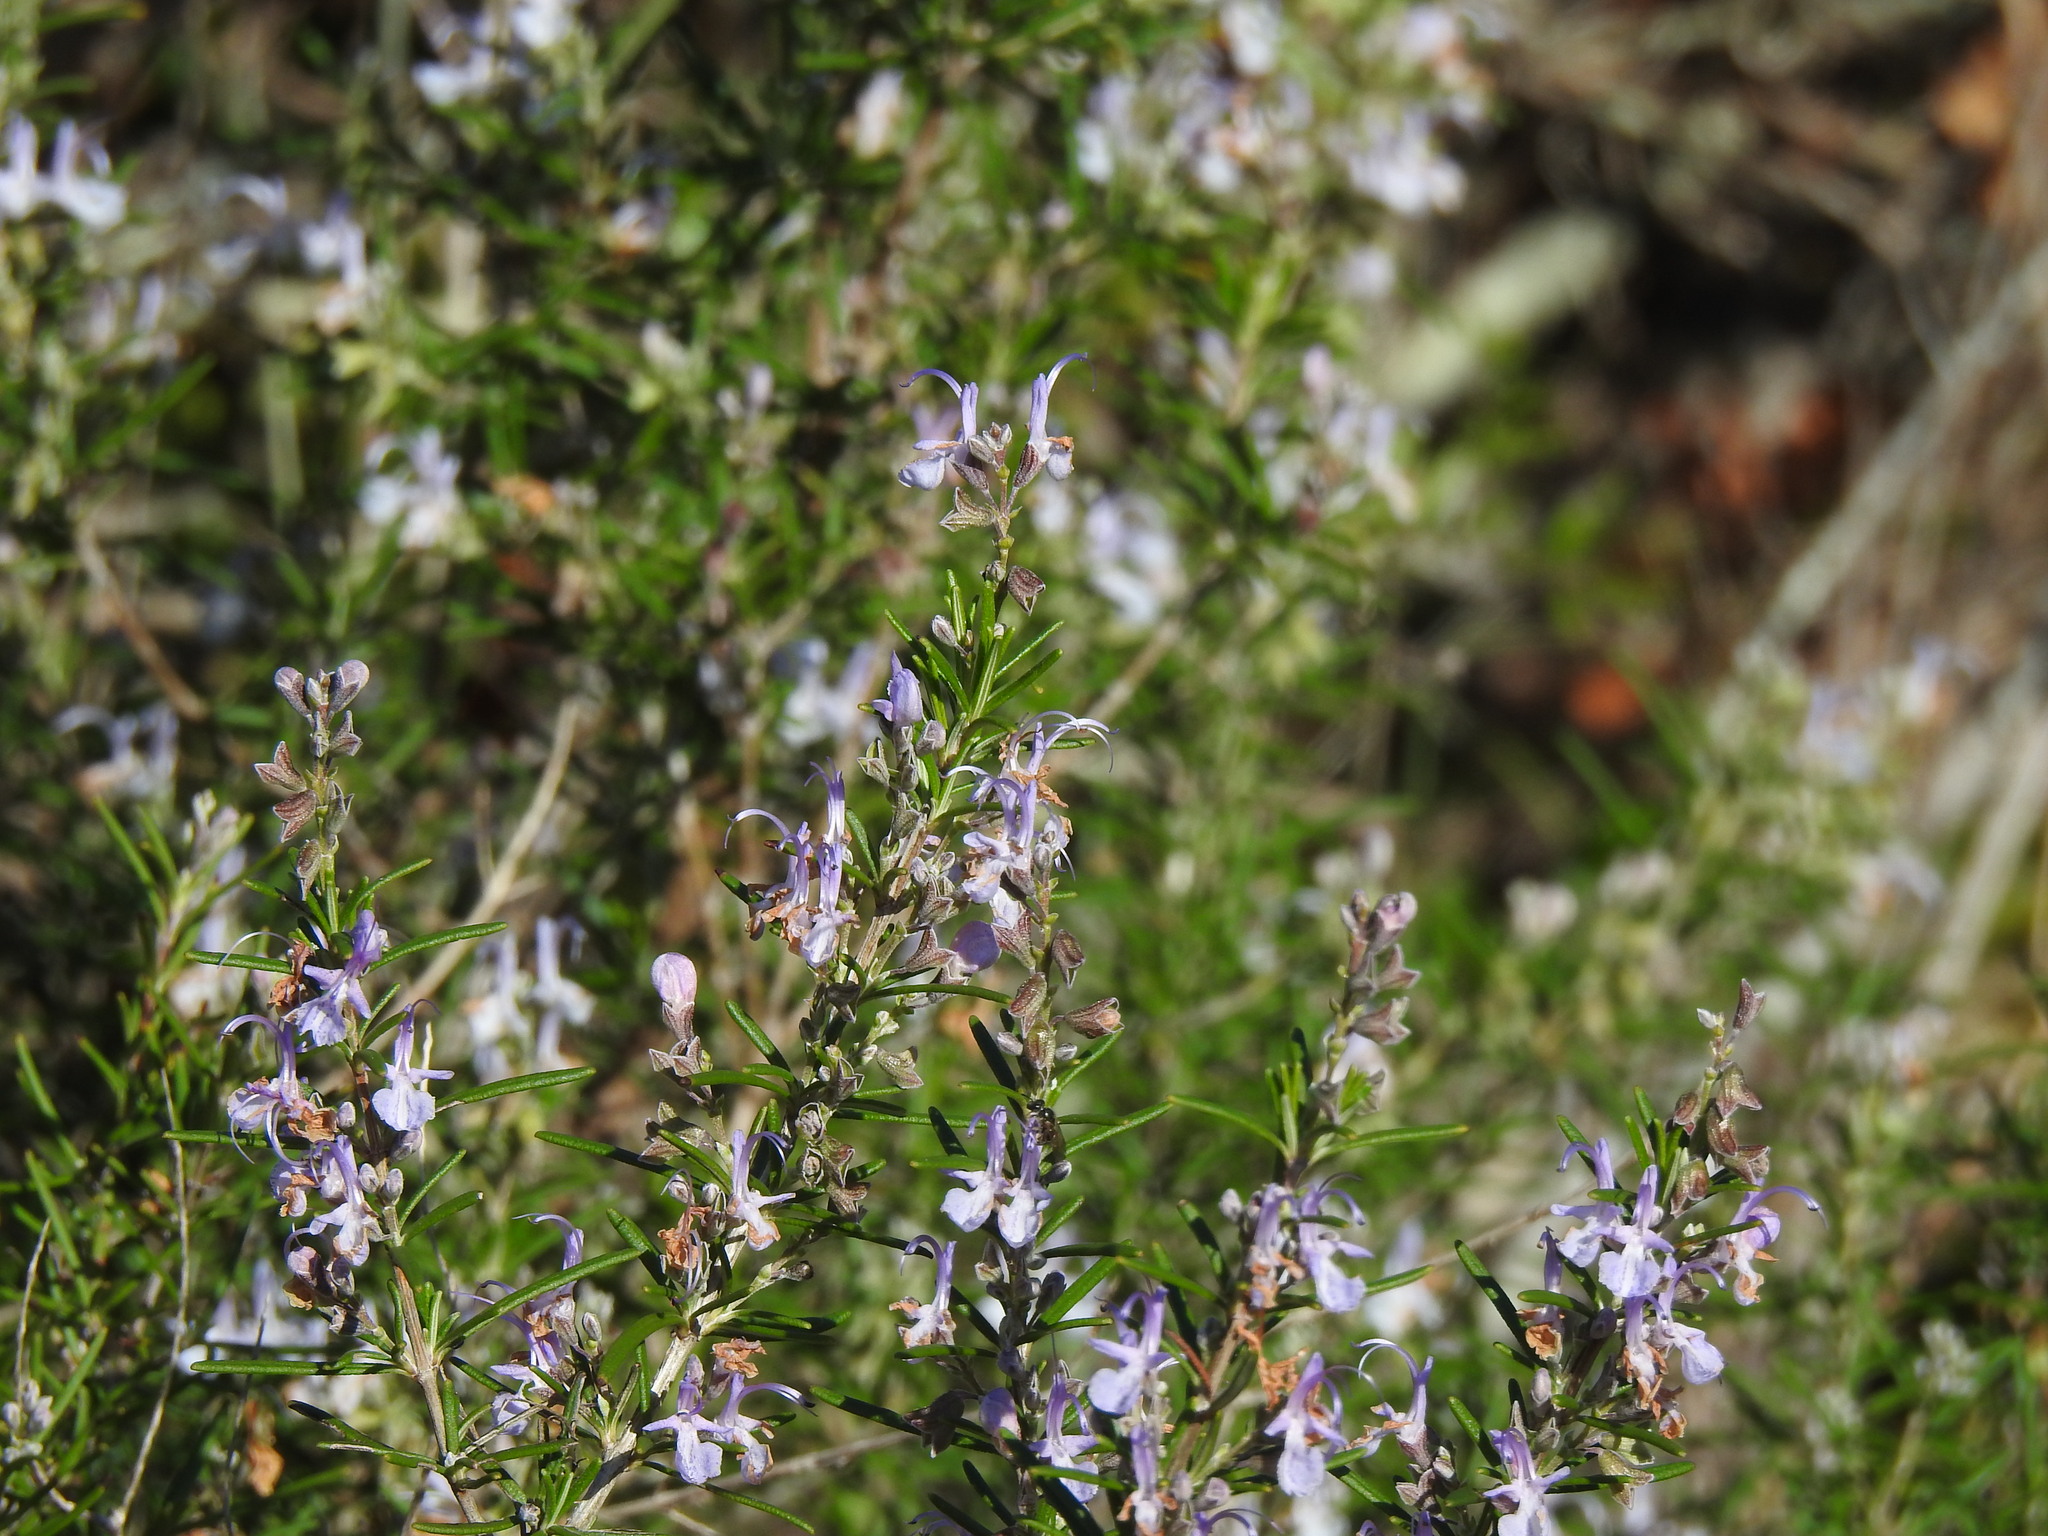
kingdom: Plantae
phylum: Tracheophyta
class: Magnoliopsida
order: Lamiales
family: Lamiaceae
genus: Salvia
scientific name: Salvia rosmarinus
